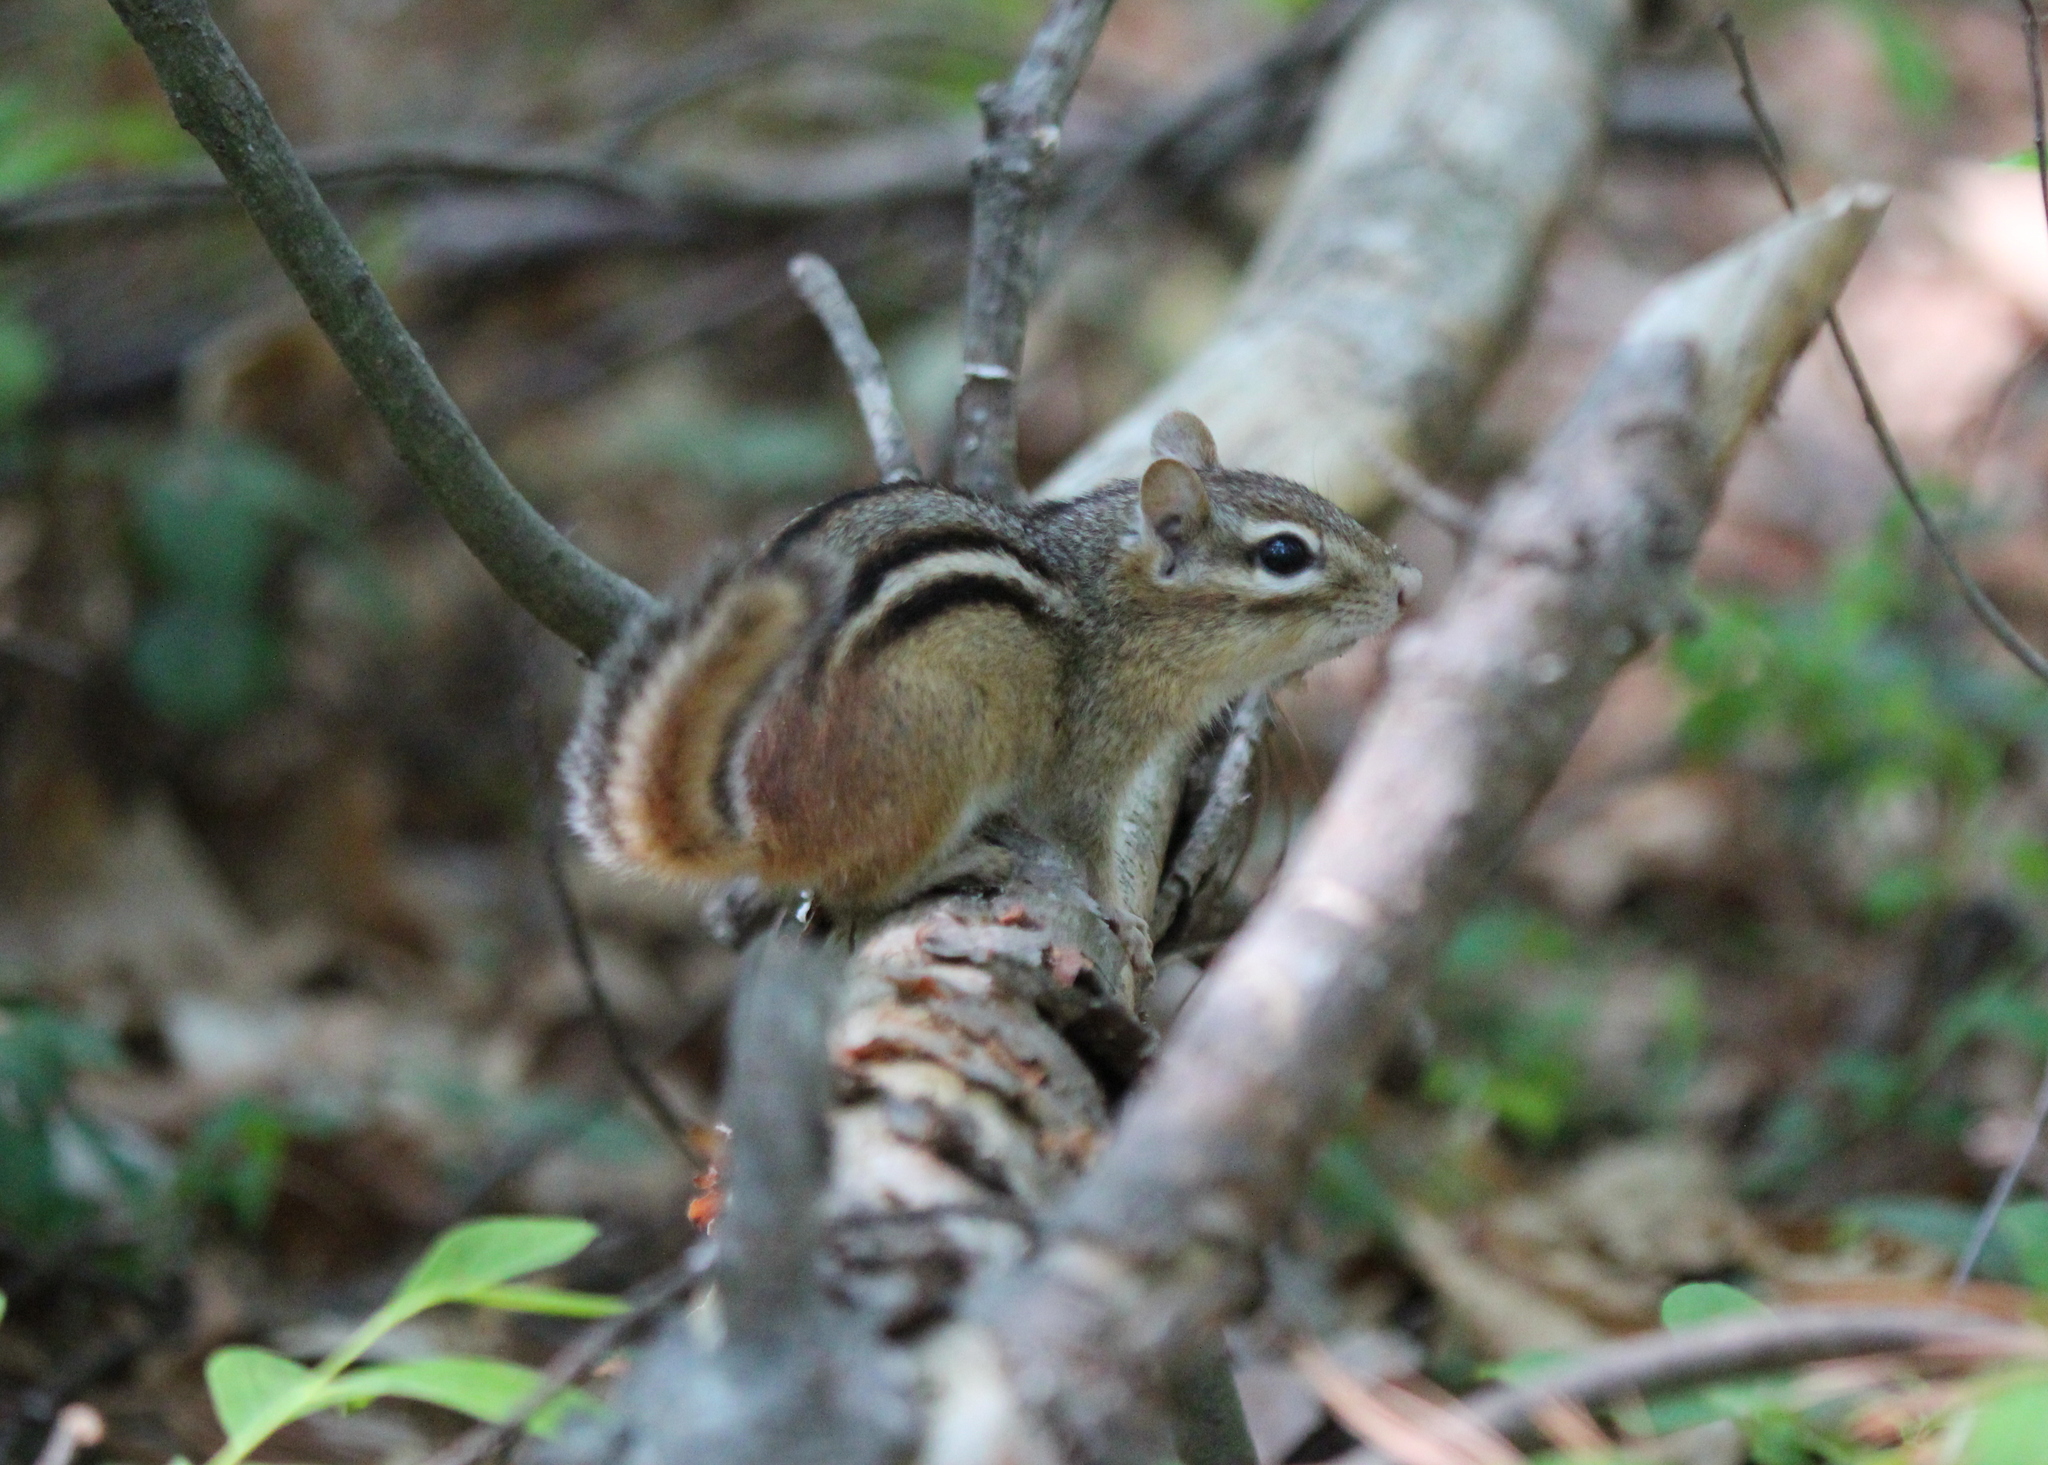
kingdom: Animalia
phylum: Chordata
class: Mammalia
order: Rodentia
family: Sciuridae
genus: Tamias
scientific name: Tamias striatus
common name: Eastern chipmunk
